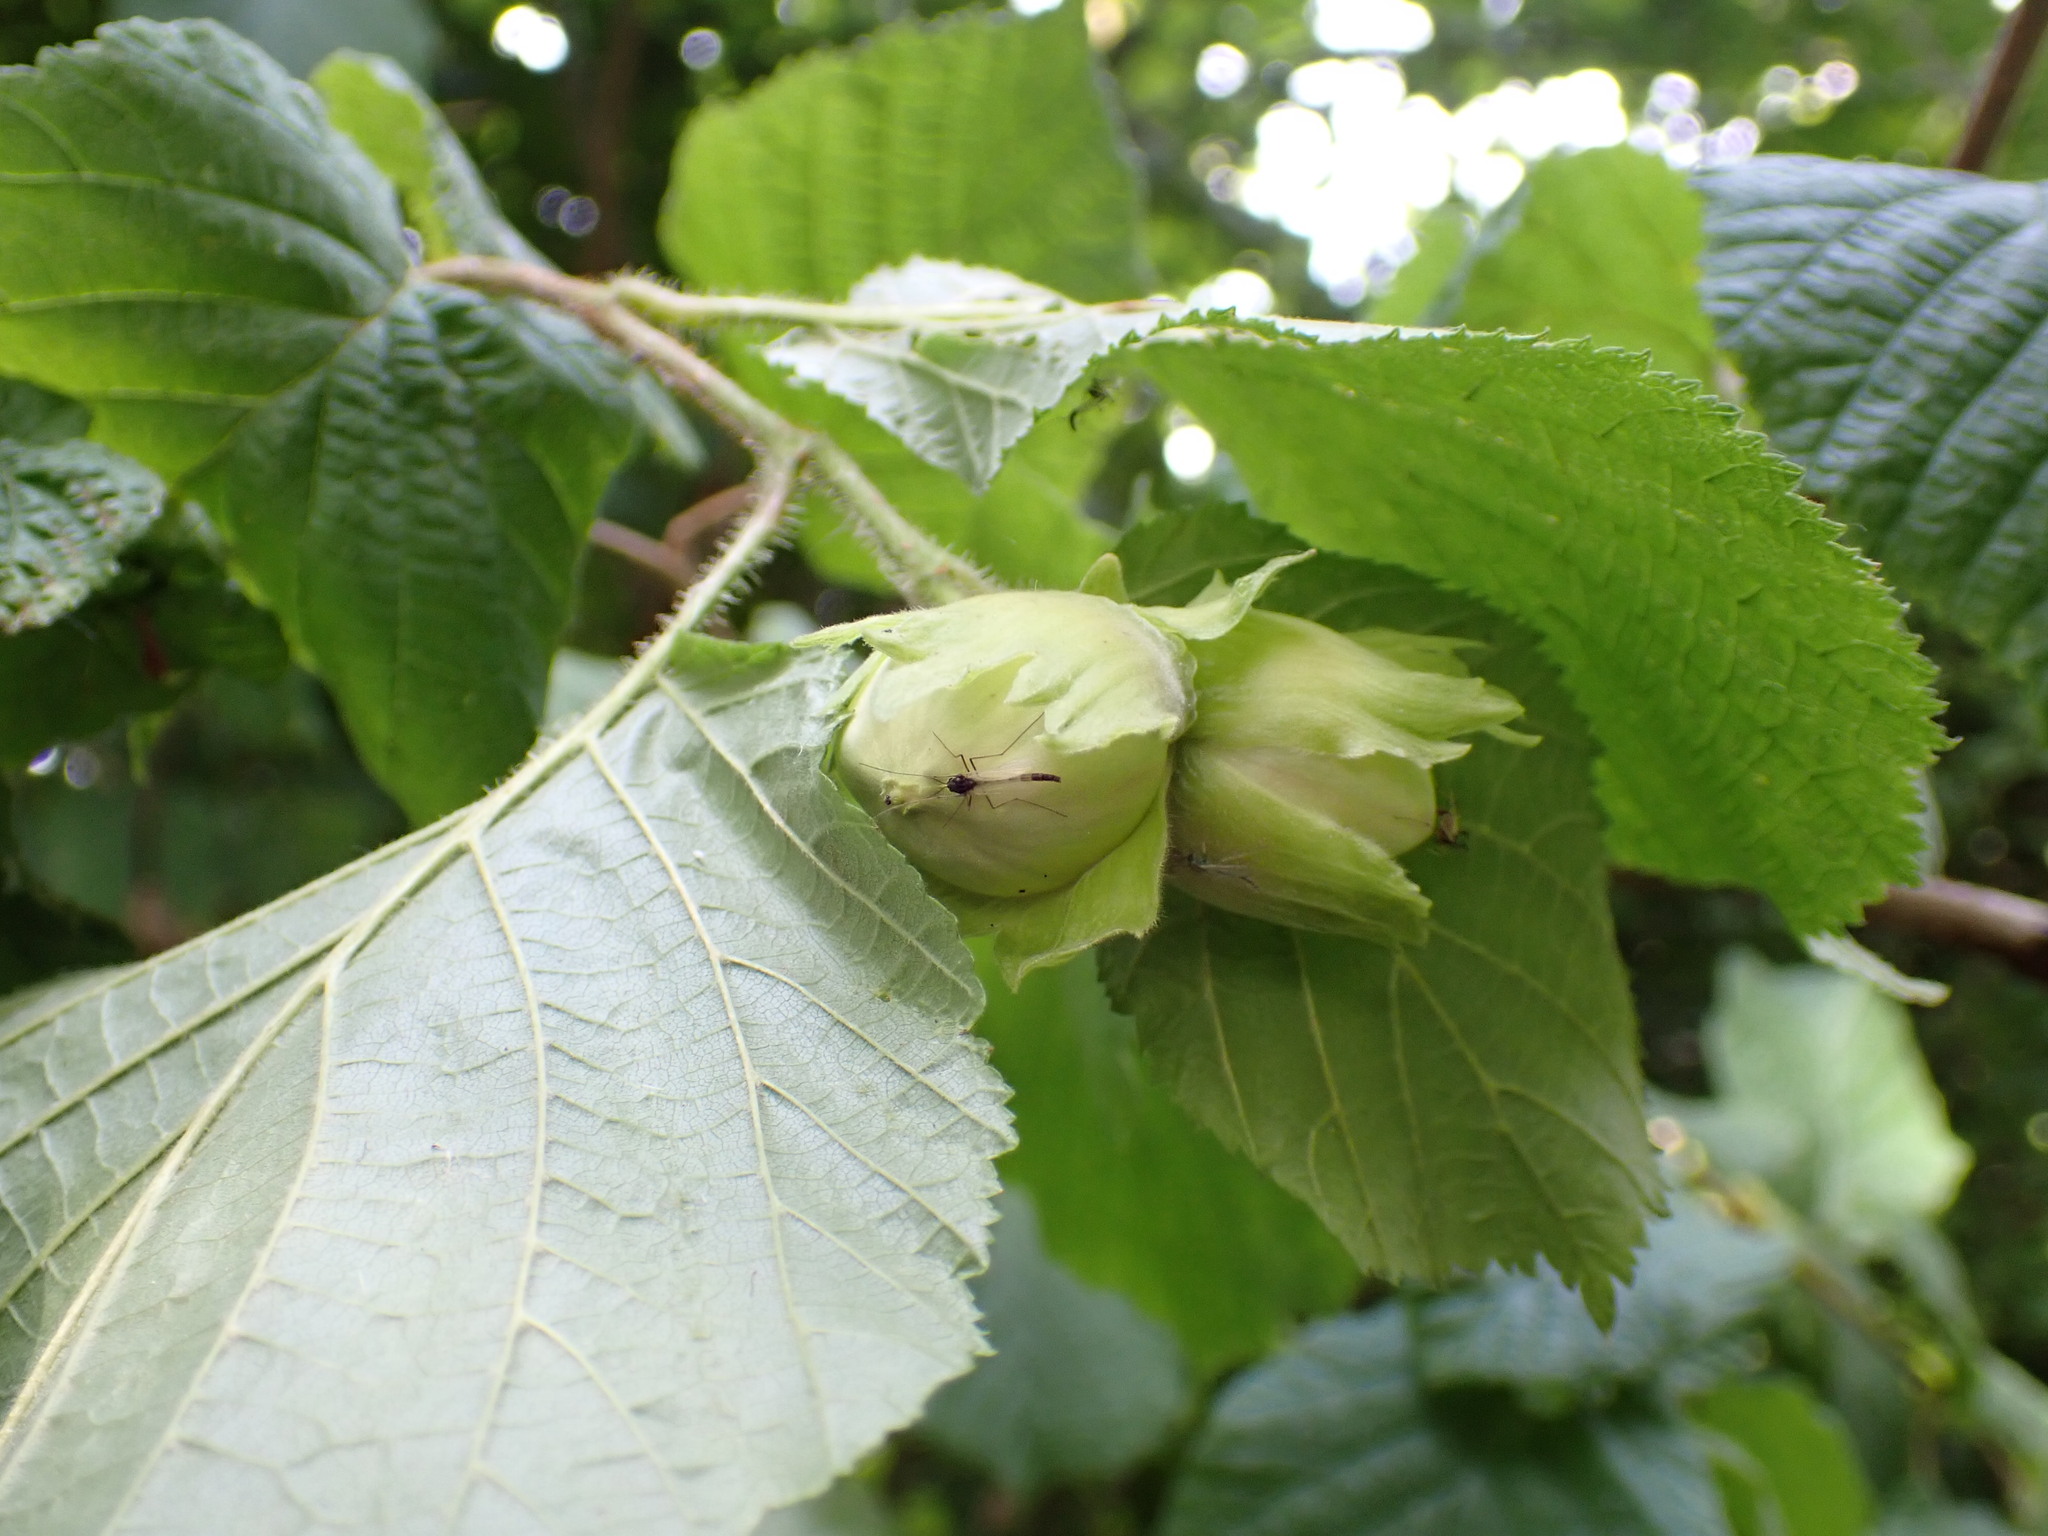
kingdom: Plantae
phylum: Tracheophyta
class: Magnoliopsida
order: Fagales
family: Betulaceae
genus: Corylus
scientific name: Corylus avellana
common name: European hazel
